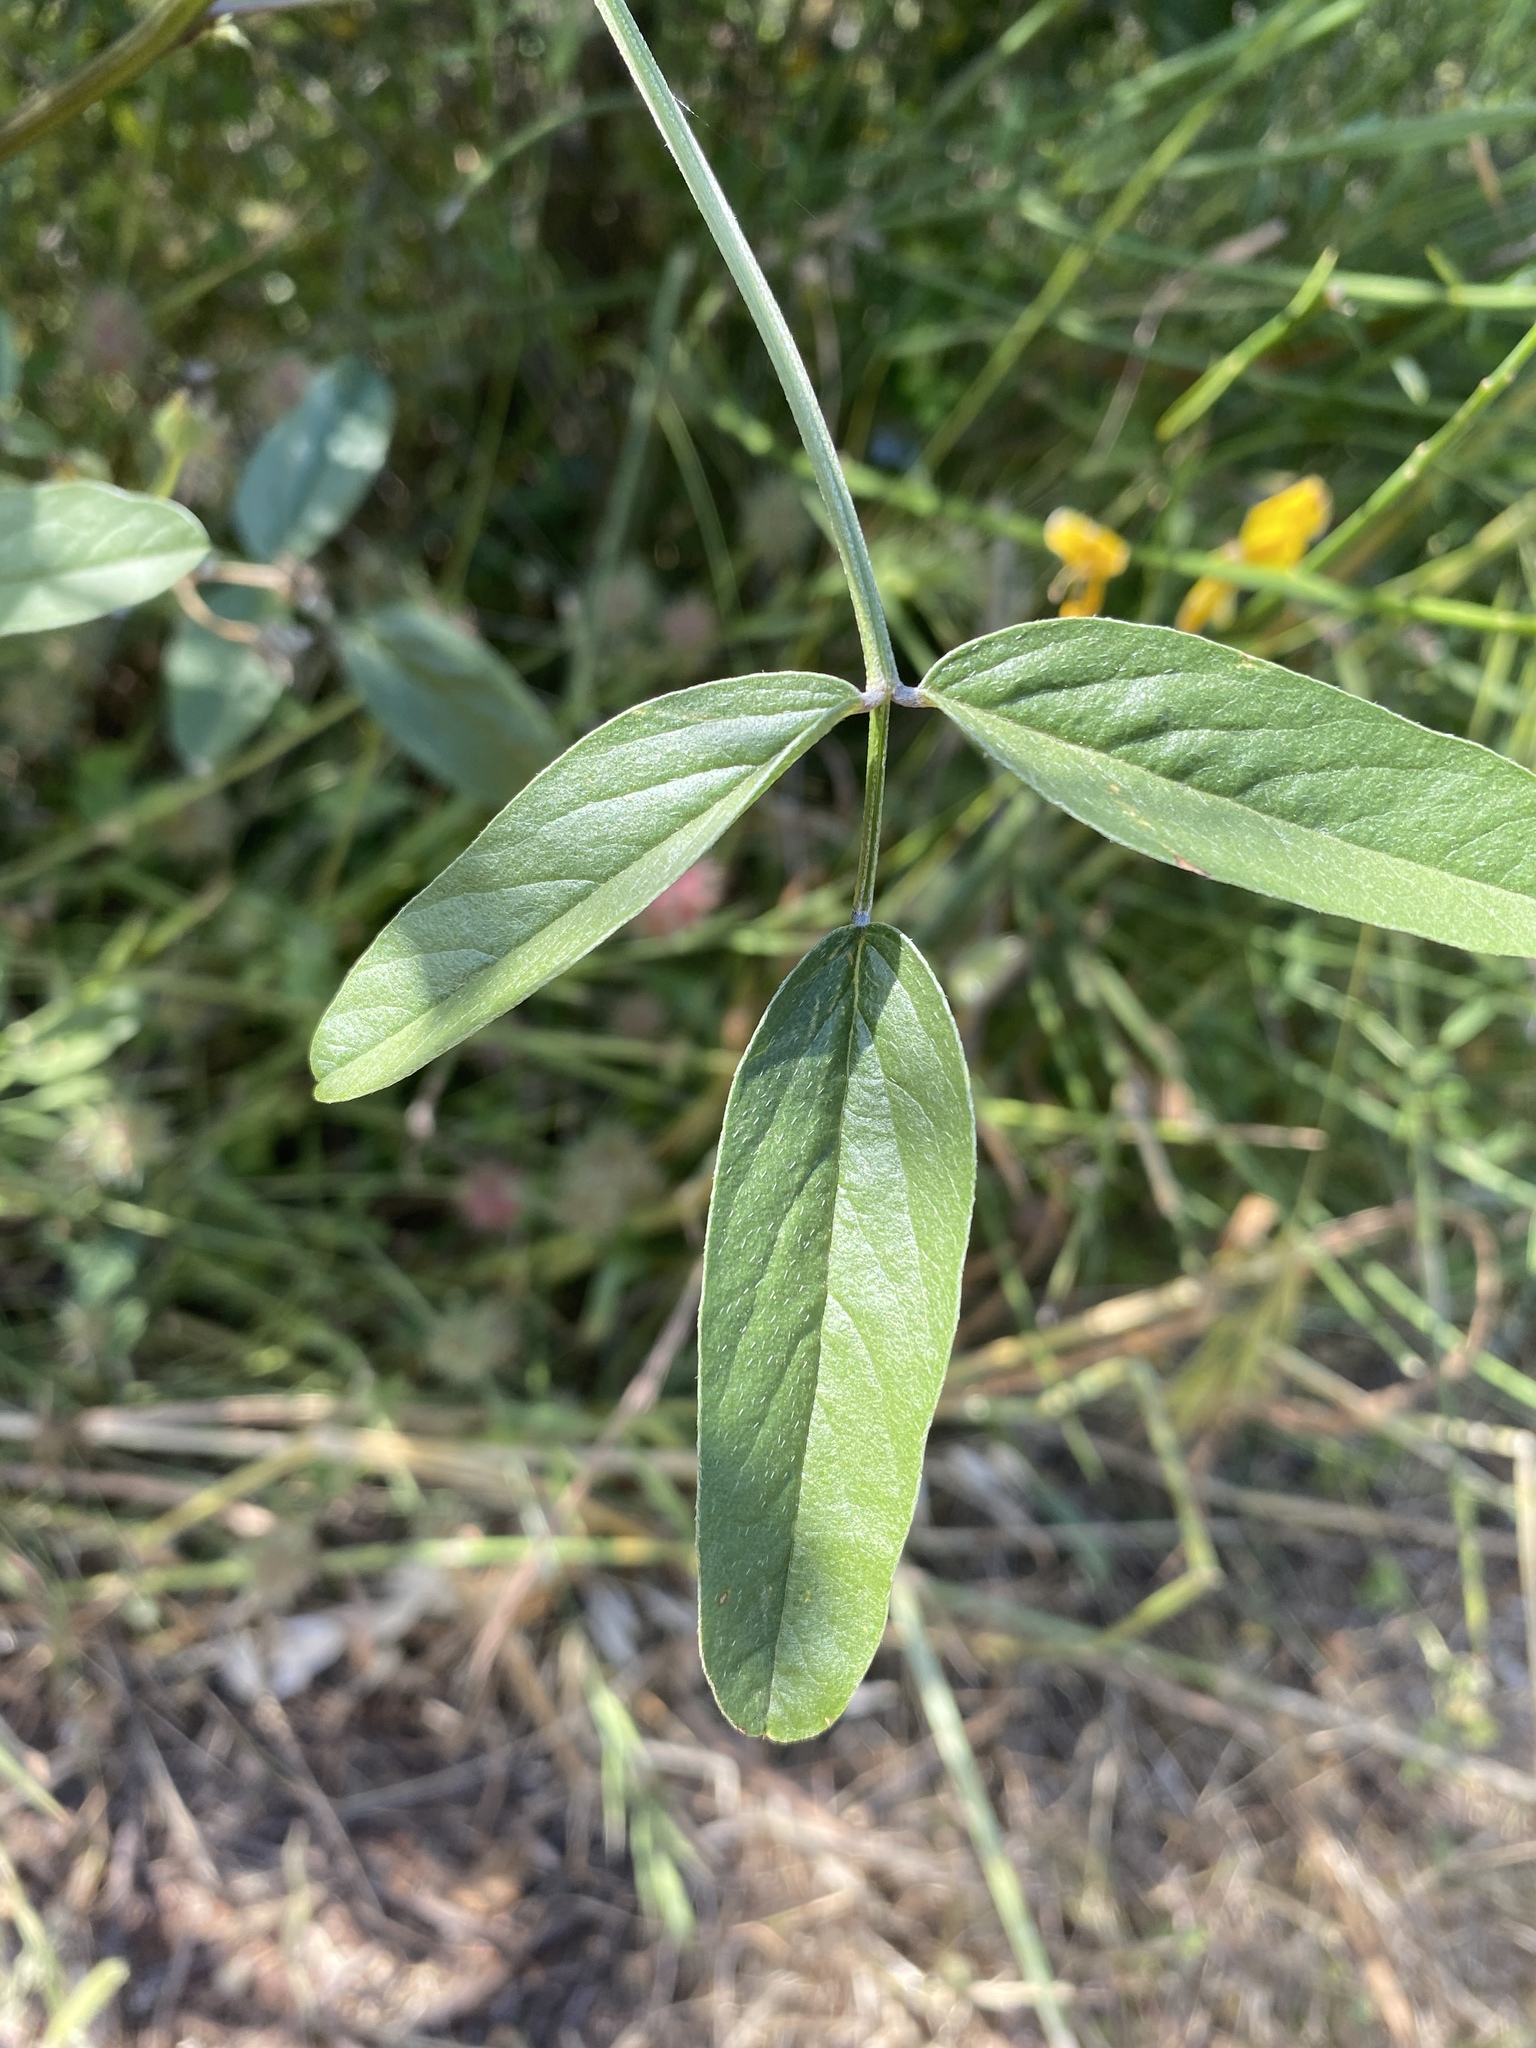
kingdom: Plantae
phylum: Tracheophyta
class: Magnoliopsida
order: Fabales
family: Fabaceae
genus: Bituminaria
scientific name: Bituminaria bituminosa
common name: Arabian pea
